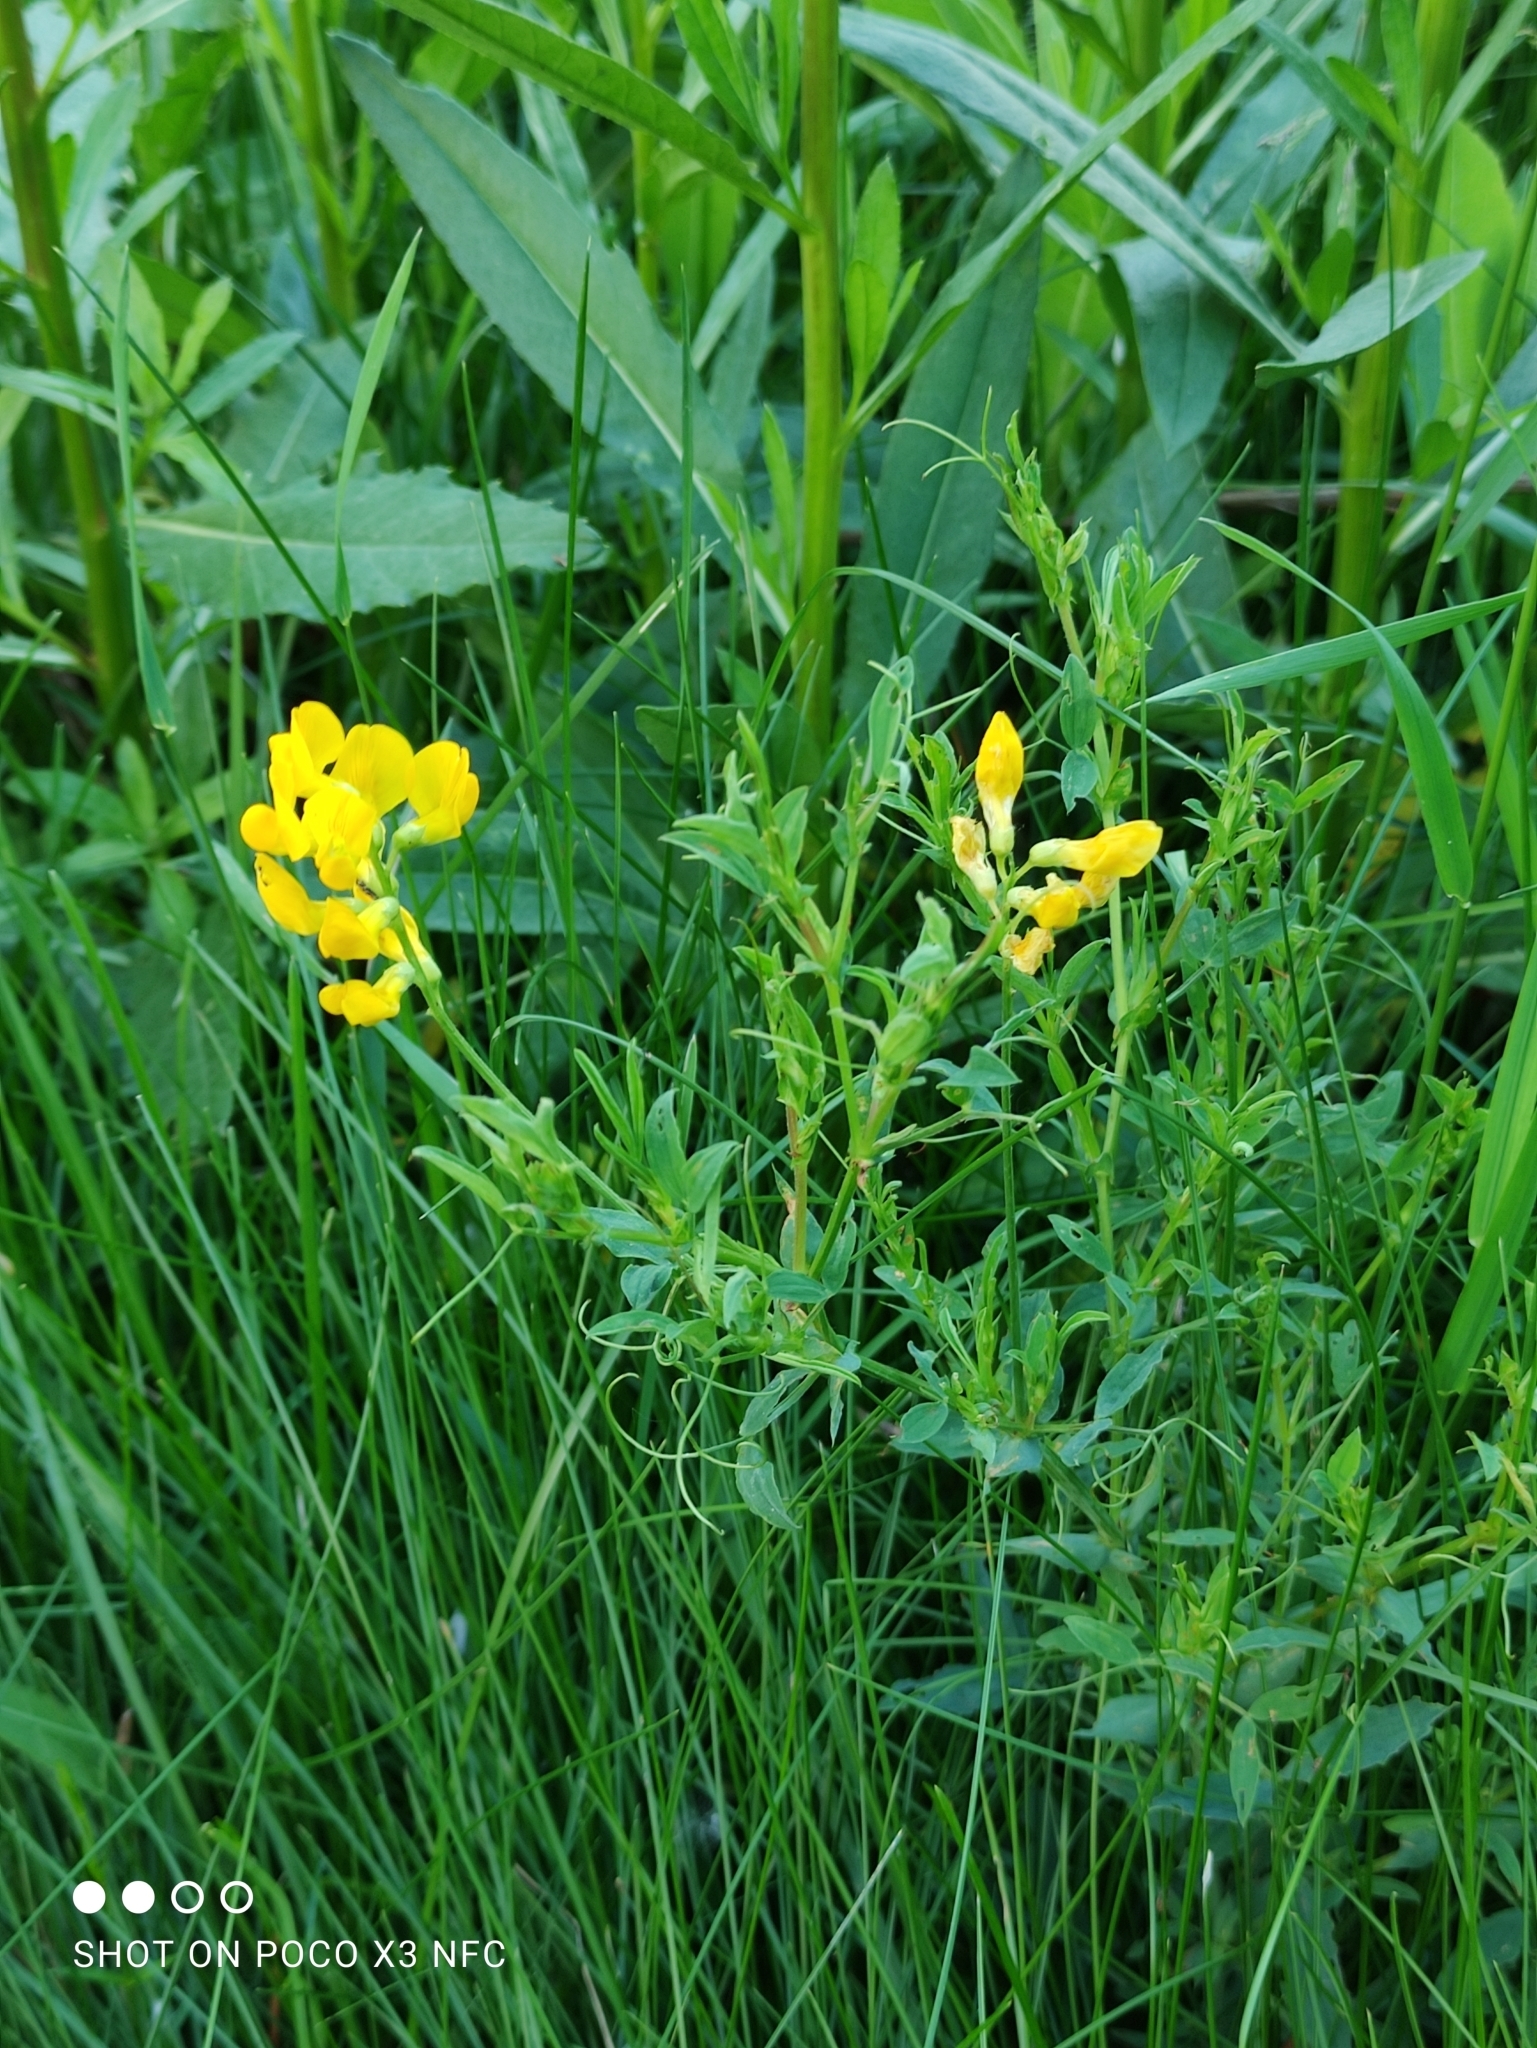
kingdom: Plantae
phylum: Tracheophyta
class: Magnoliopsida
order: Fabales
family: Fabaceae
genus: Lathyrus
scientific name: Lathyrus pratensis
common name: Meadow vetchling
